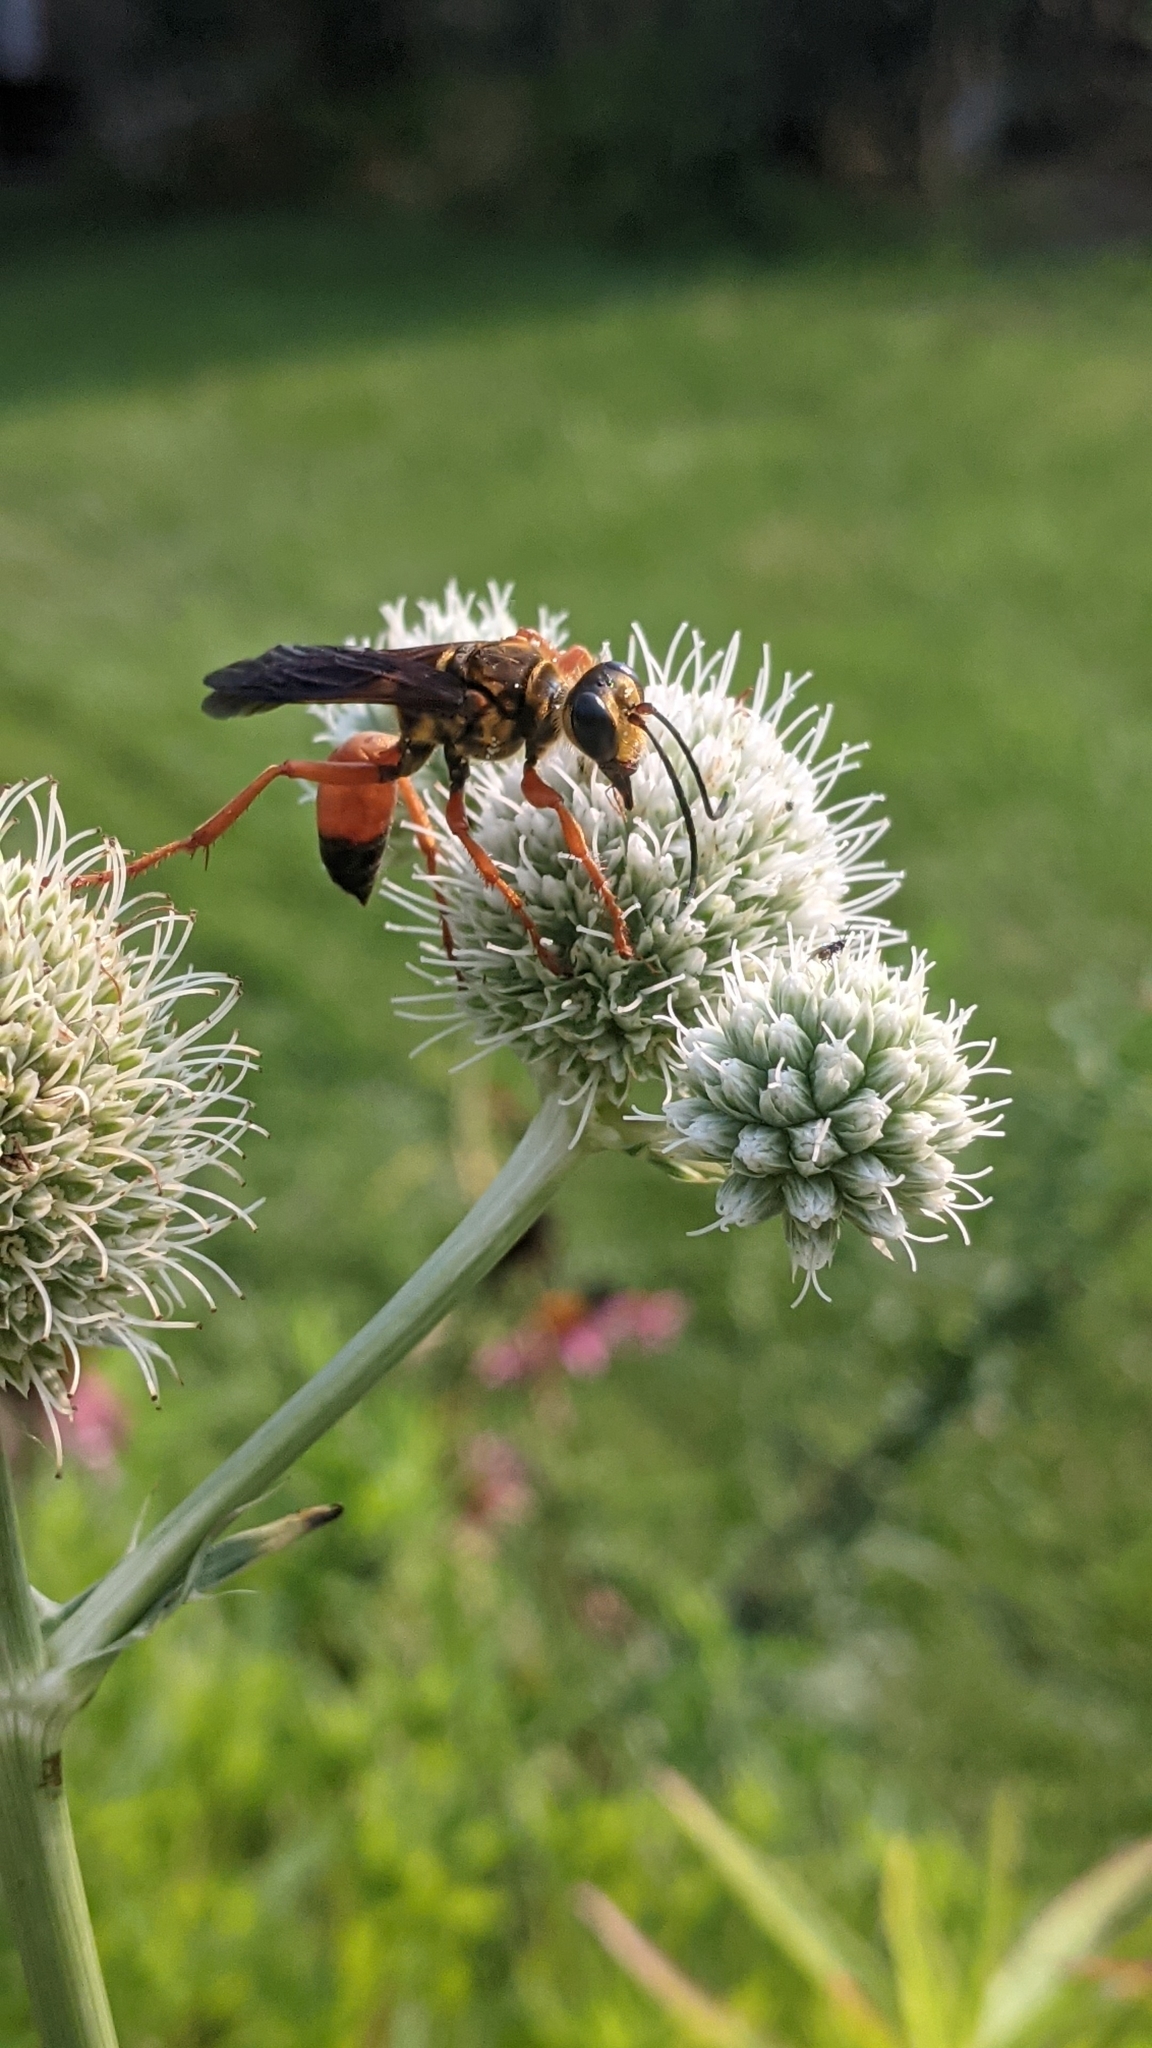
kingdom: Animalia
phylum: Arthropoda
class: Insecta
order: Hymenoptera
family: Sphecidae
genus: Sphex
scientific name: Sphex ichneumoneus
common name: Great golden digger wasp
